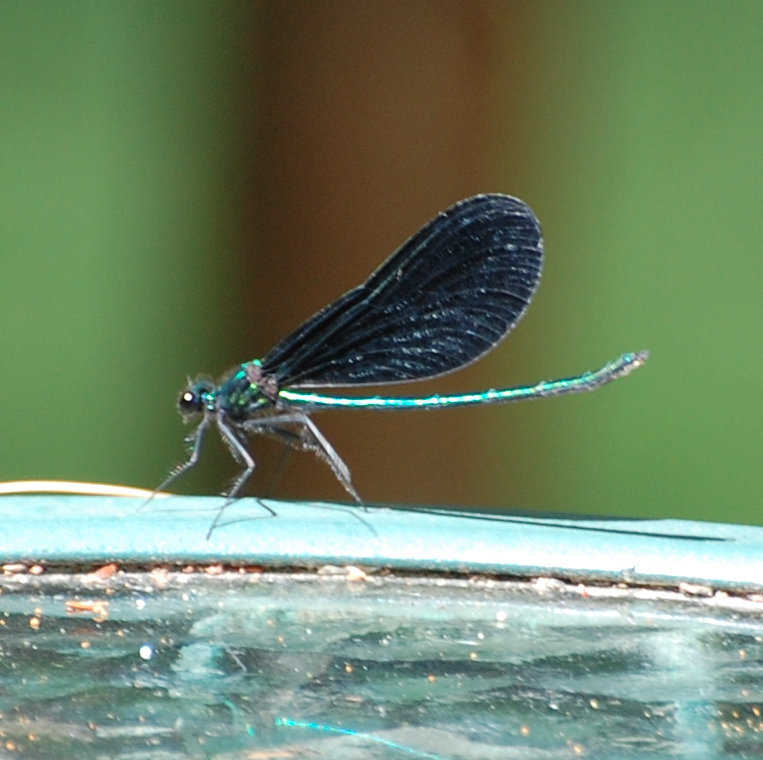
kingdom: Animalia
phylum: Arthropoda
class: Insecta
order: Odonata
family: Calopterygidae
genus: Calopteryx
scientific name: Calopteryx maculata
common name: Ebony jewelwing
